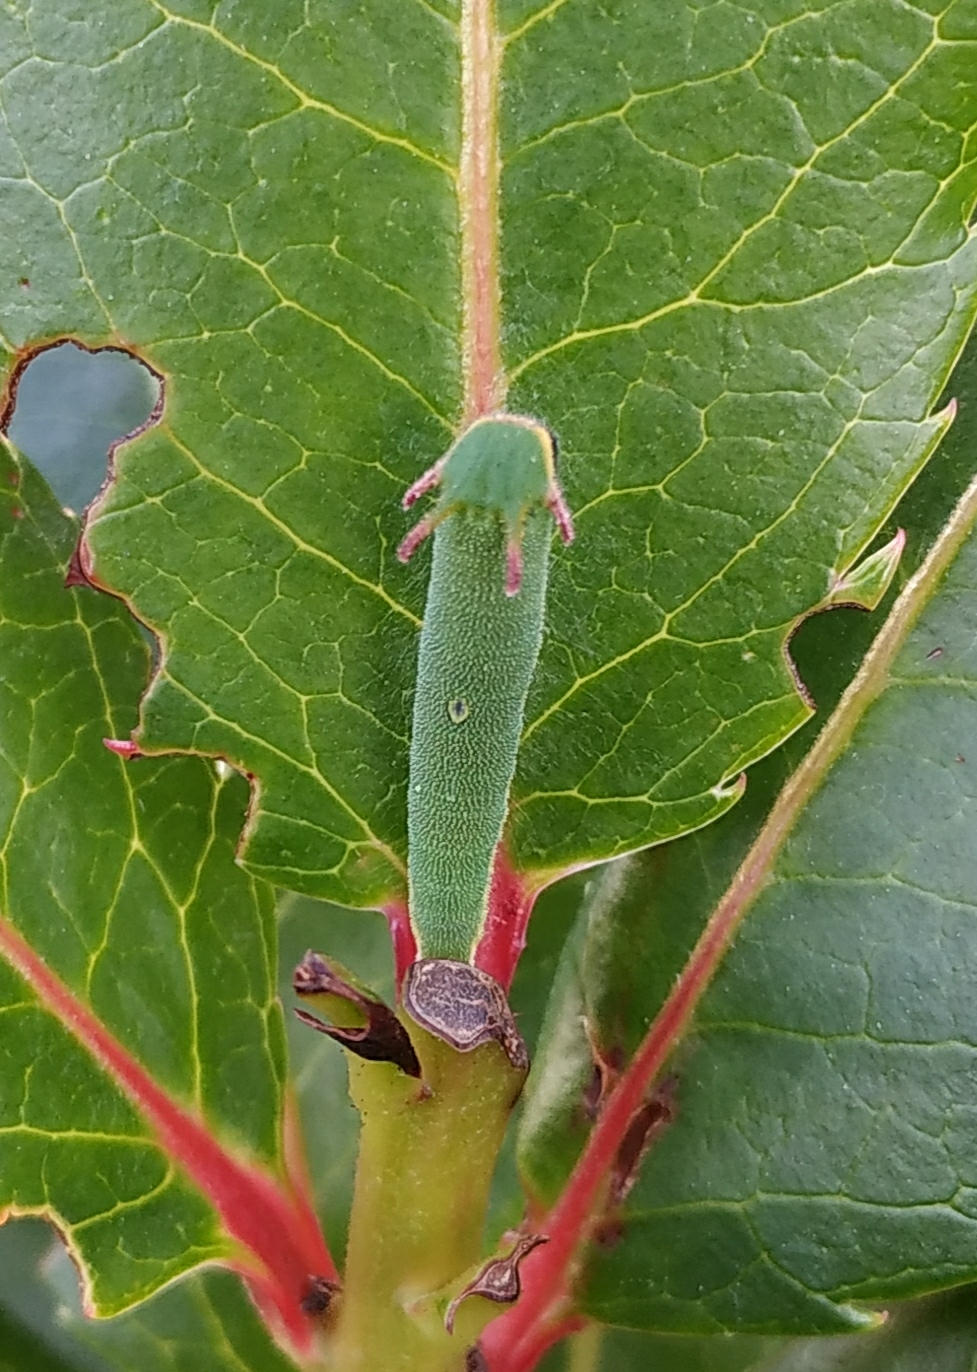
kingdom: Animalia
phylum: Arthropoda
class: Insecta
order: Lepidoptera
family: Nymphalidae
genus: Charaxes
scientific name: Charaxes jasius
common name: Two tailed pasha
